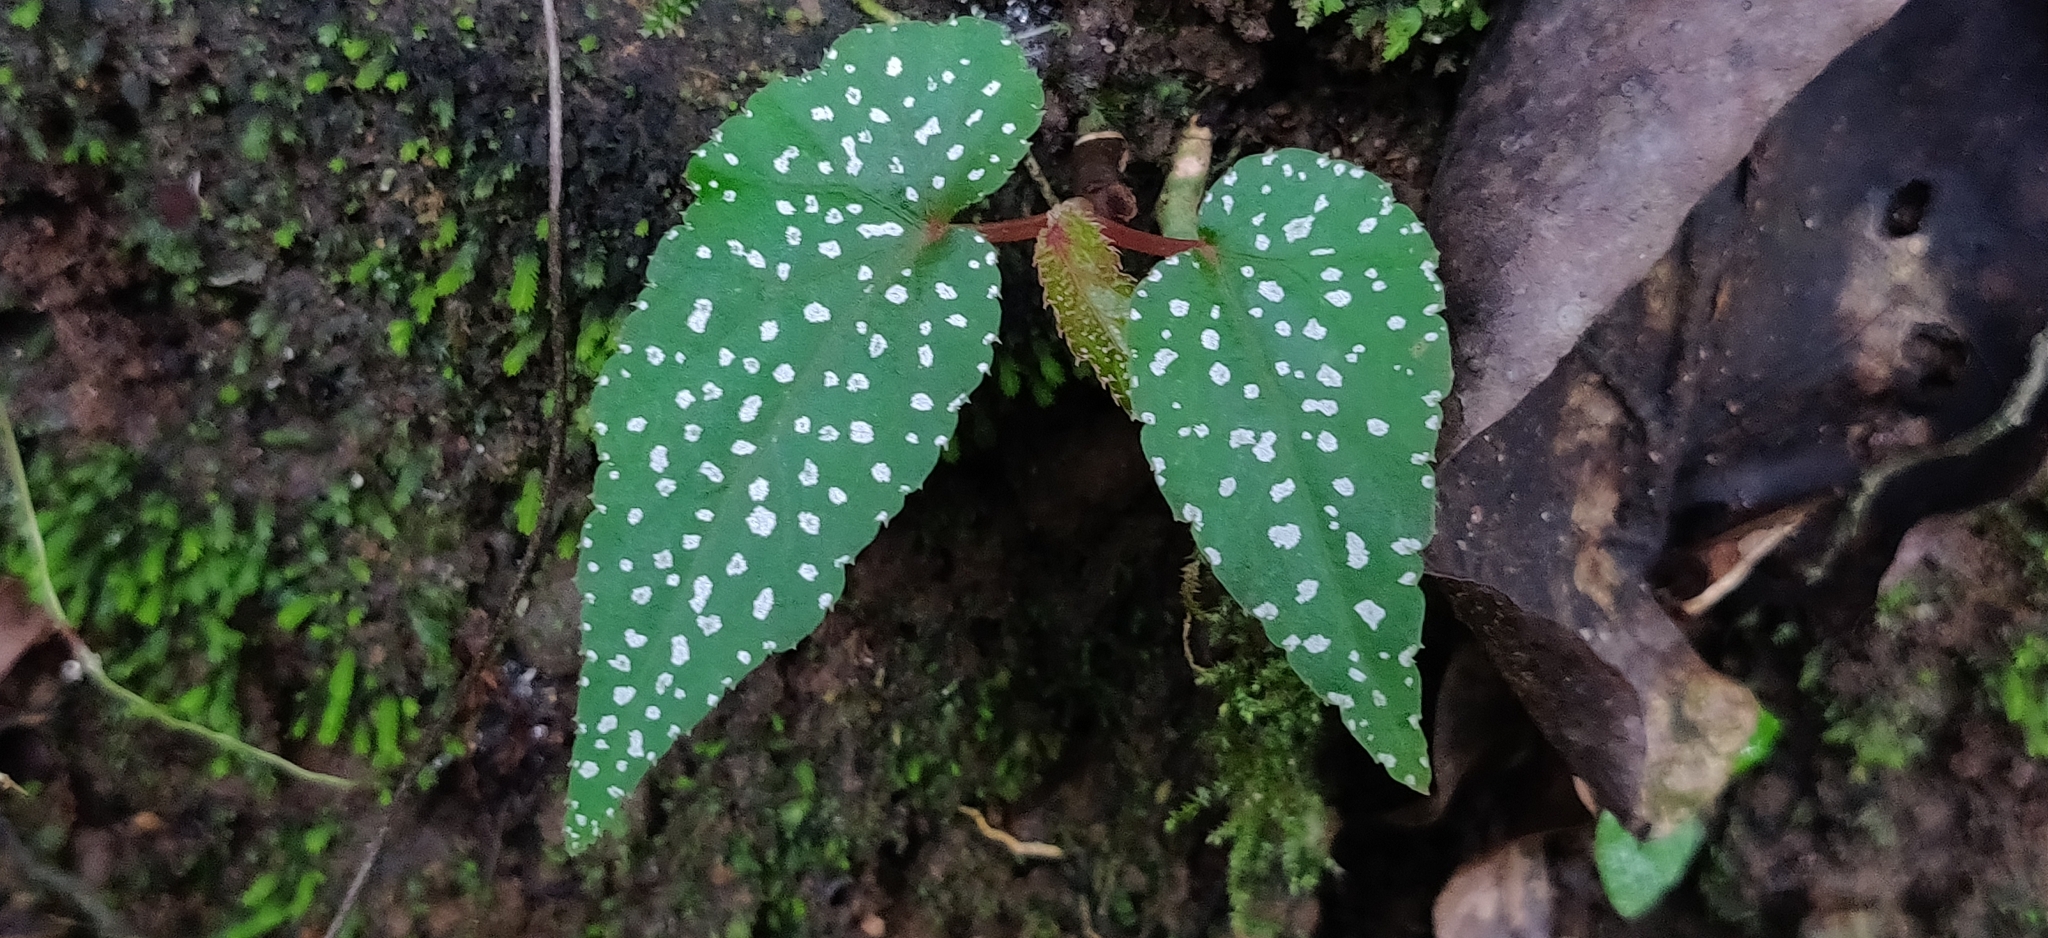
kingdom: Plantae
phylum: Tracheophyta
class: Magnoliopsida
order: Cucurbitales
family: Begoniaceae
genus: Begonia
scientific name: Begonia malabarica
